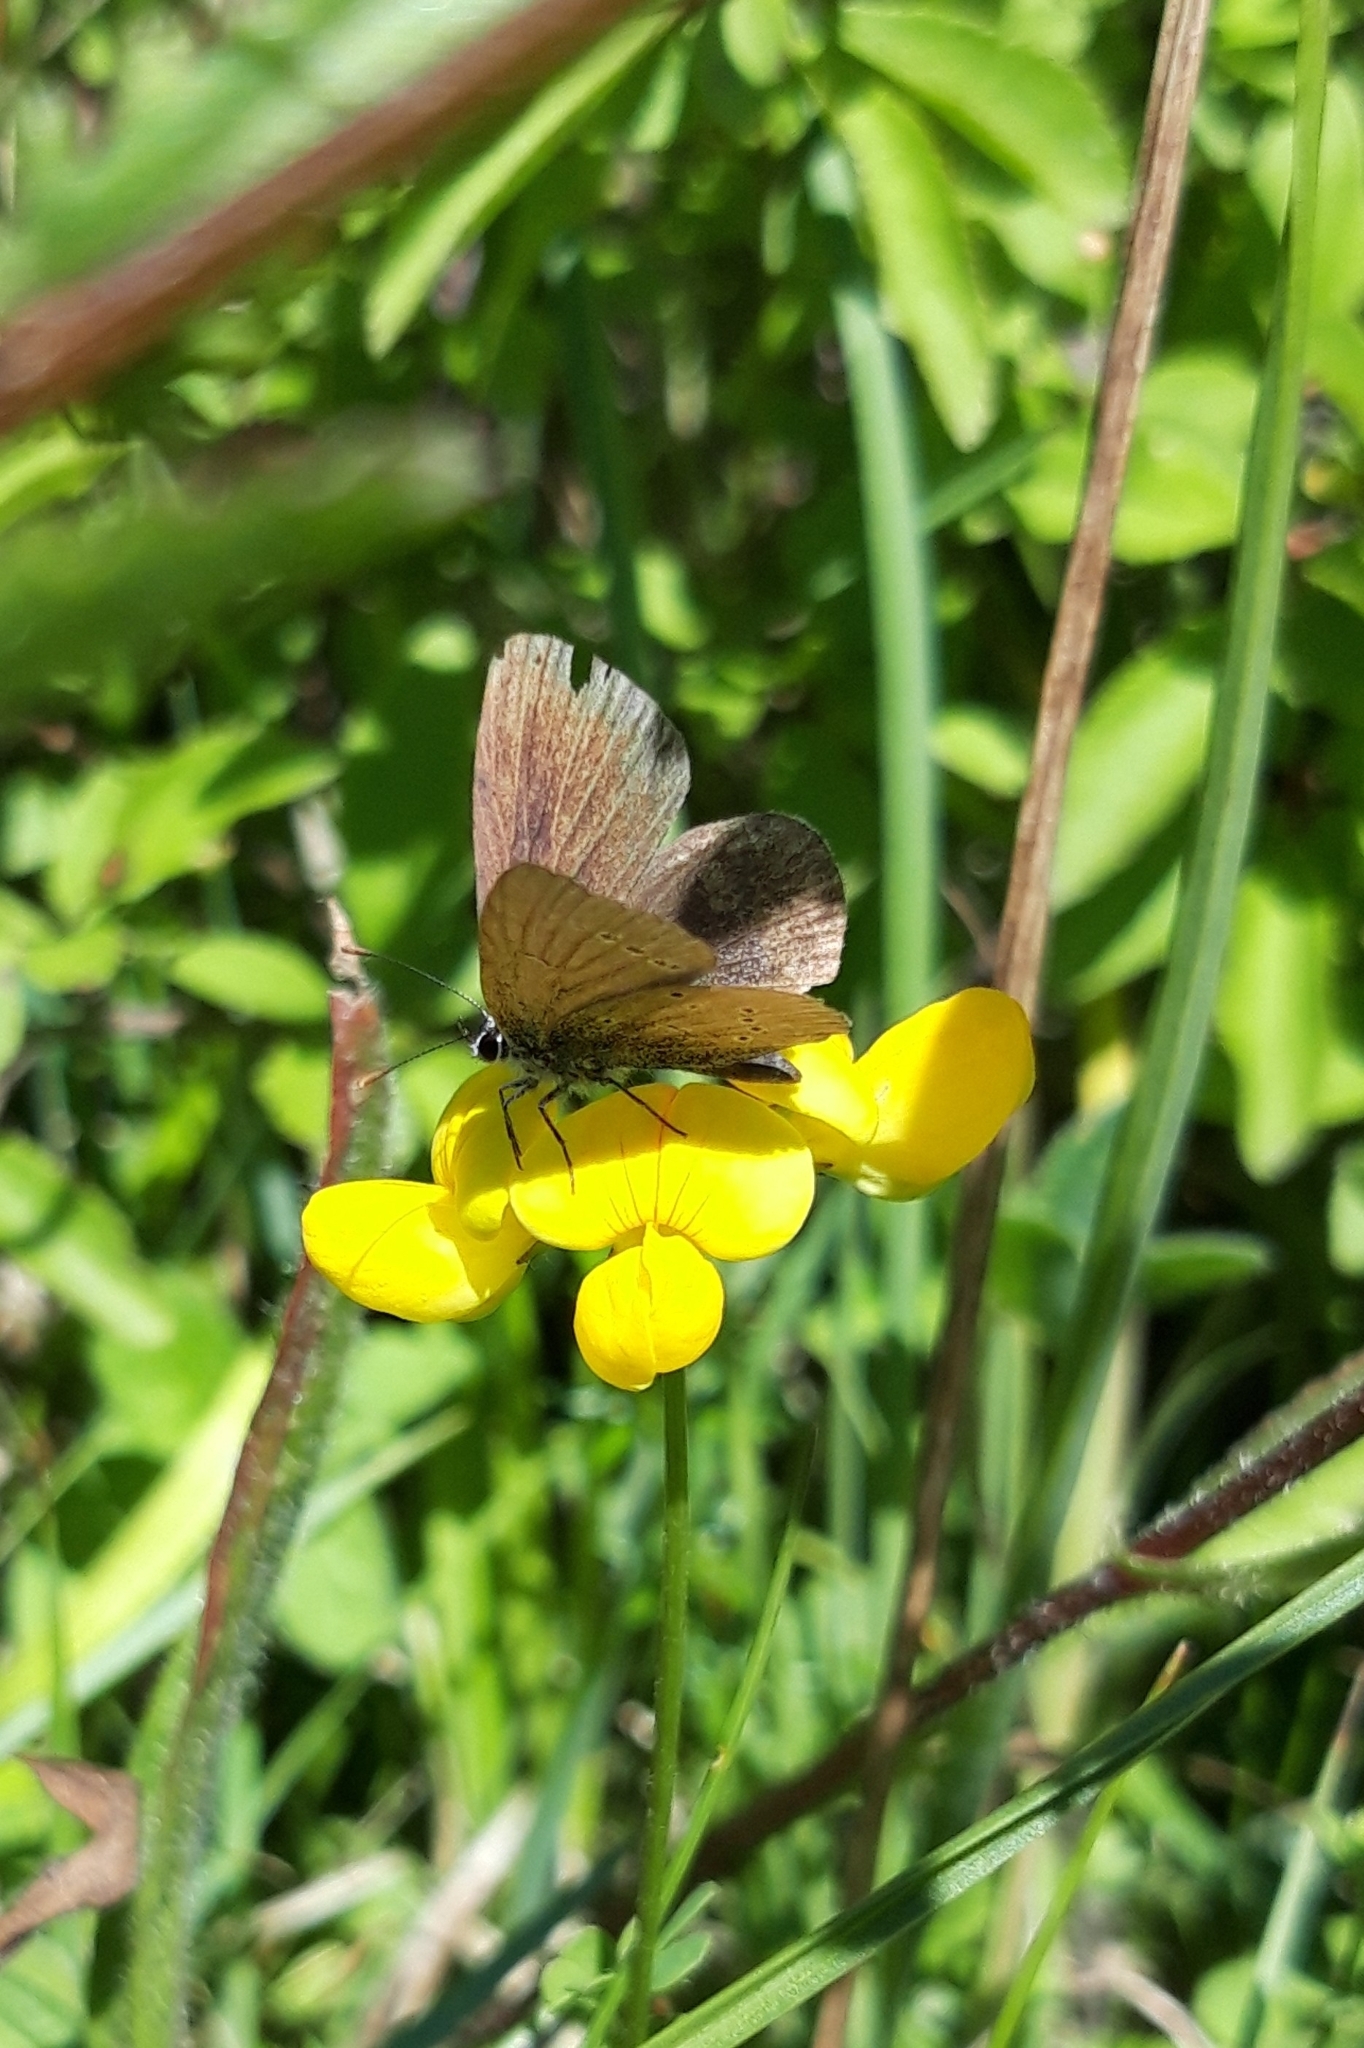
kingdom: Animalia
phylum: Arthropoda
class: Insecta
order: Lepidoptera
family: Lycaenidae
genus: Cupido
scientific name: Cupido minimus
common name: Small blue
